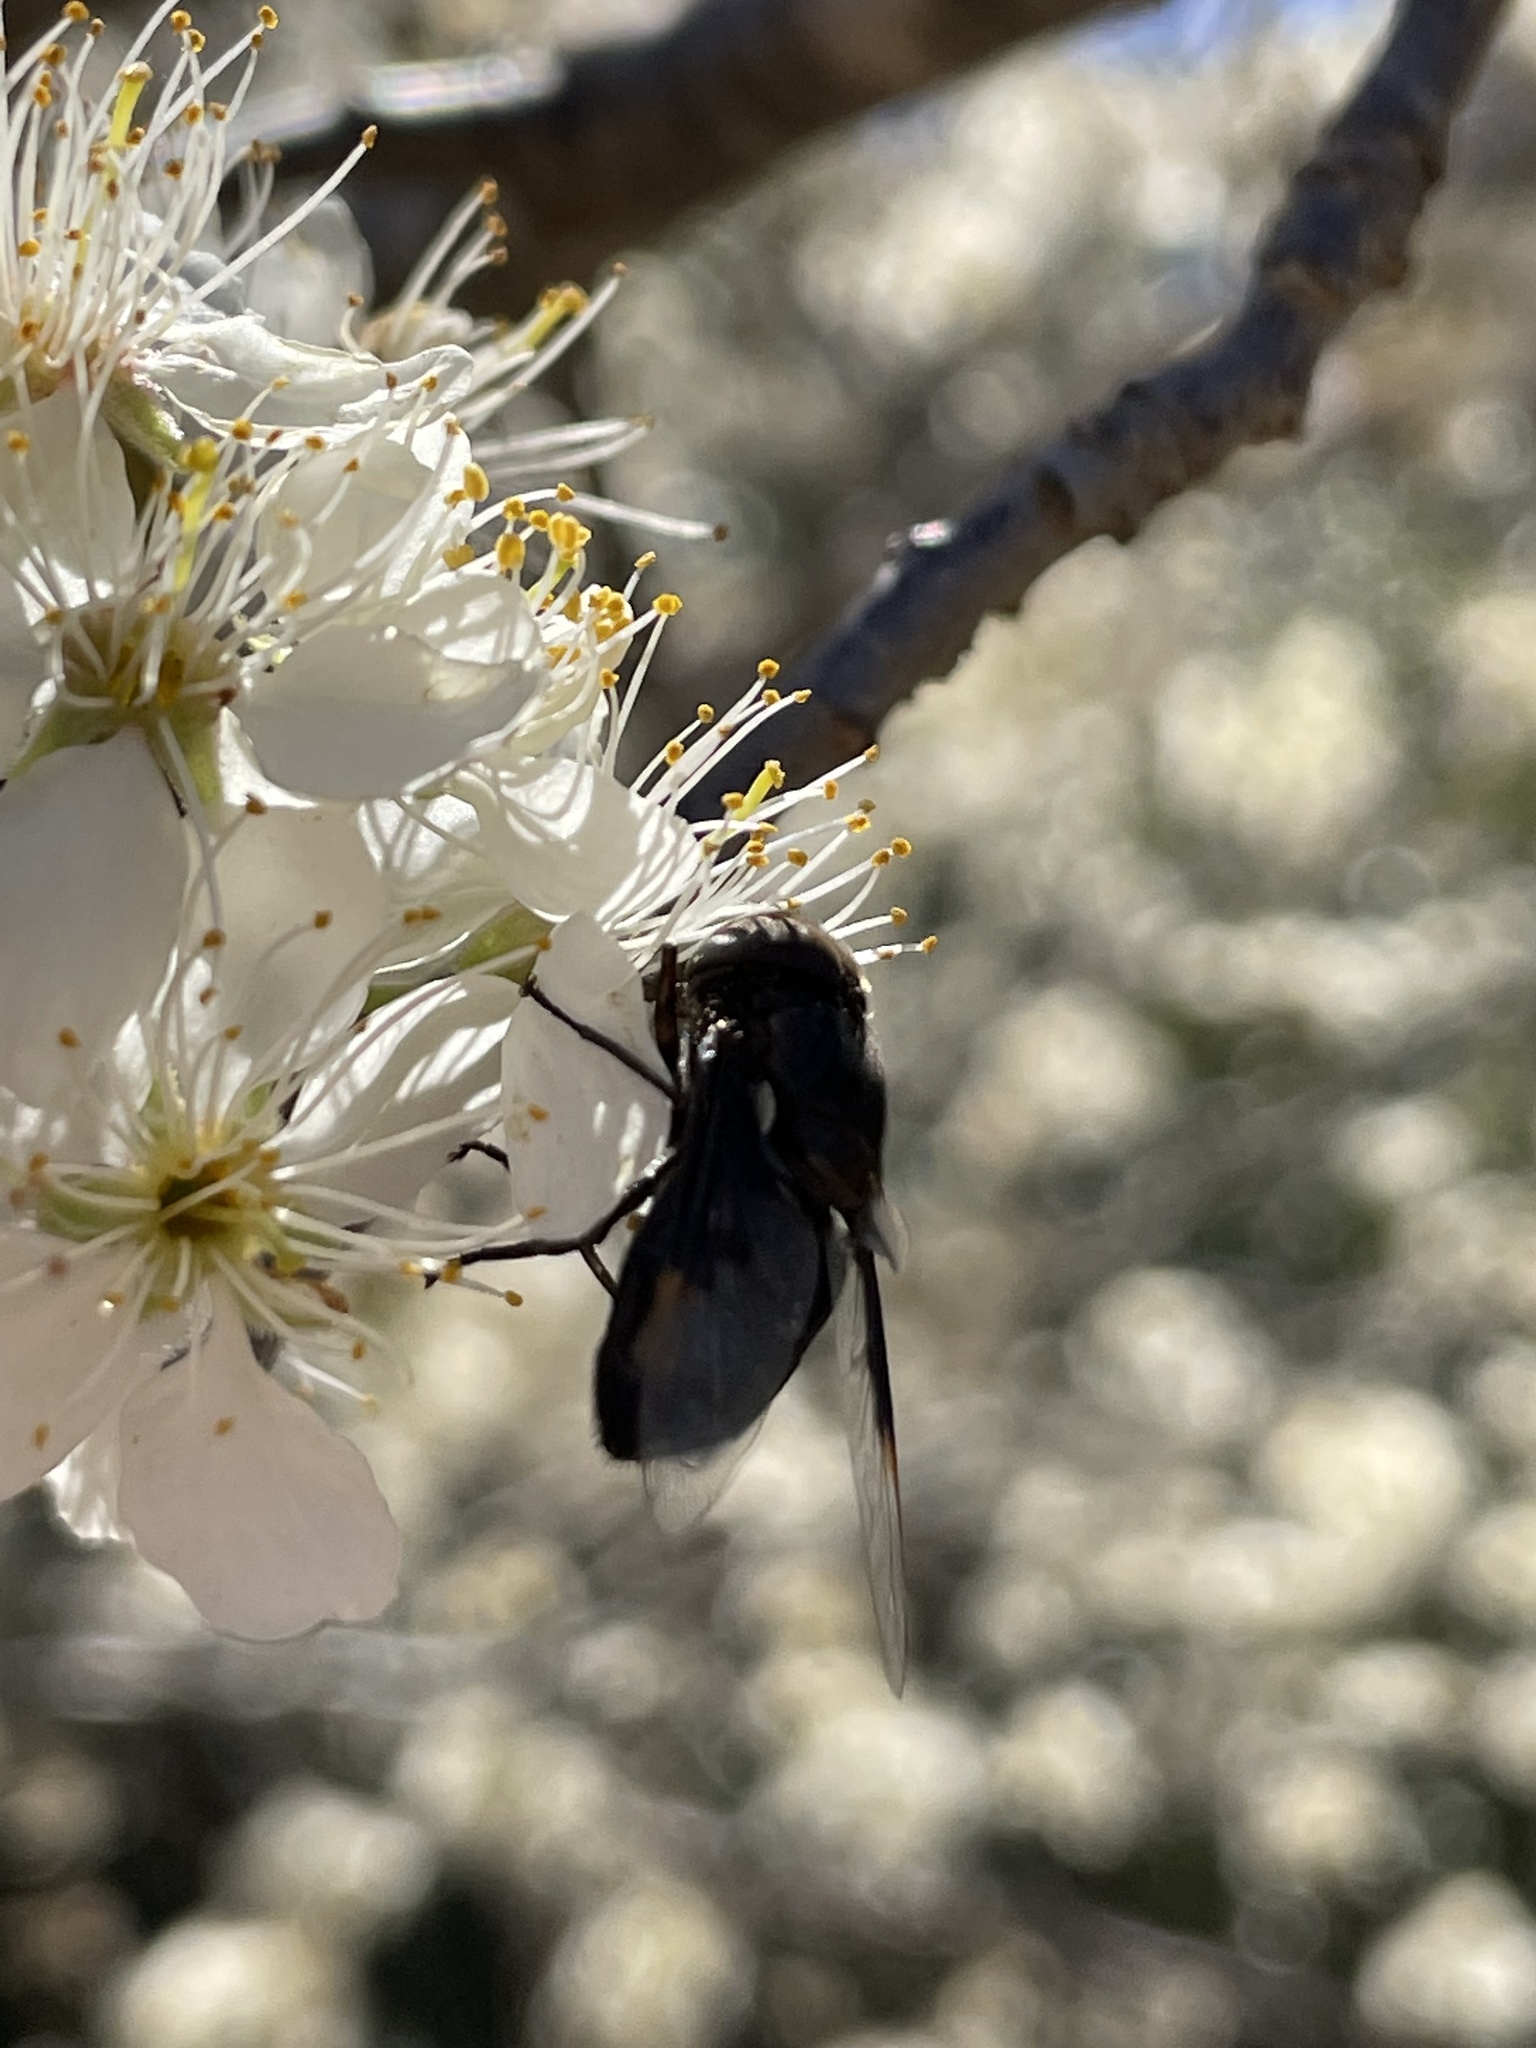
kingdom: Animalia
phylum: Arthropoda
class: Insecta
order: Diptera
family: Syrphidae
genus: Copestylum
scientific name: Copestylum
